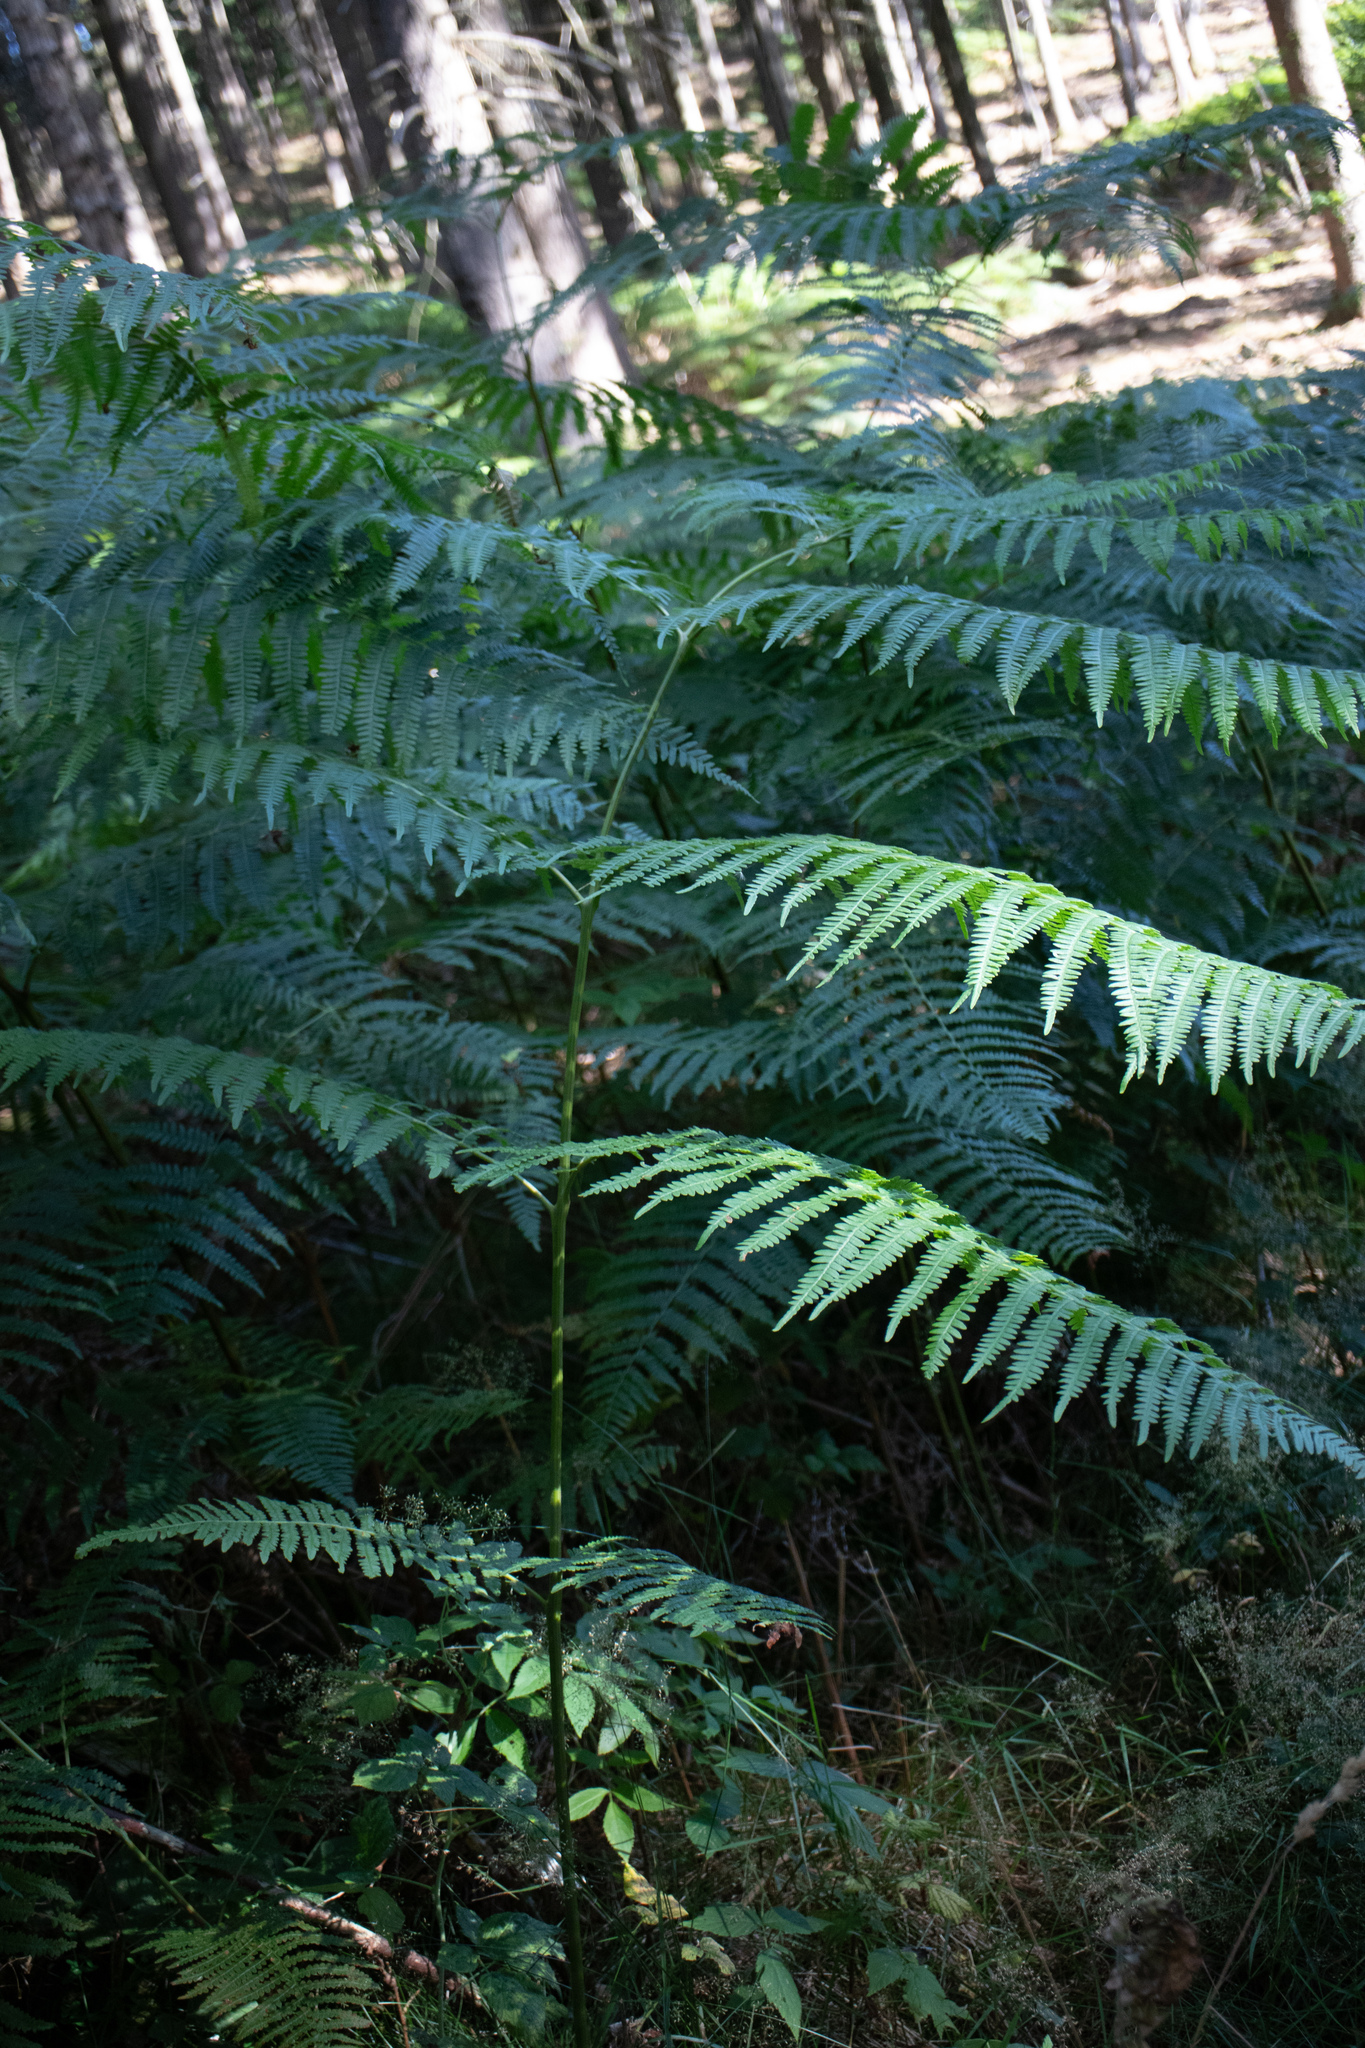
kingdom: Plantae
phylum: Tracheophyta
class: Polypodiopsida
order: Polypodiales
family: Dennstaedtiaceae
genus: Pteridium
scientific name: Pteridium aquilinum
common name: Bracken
